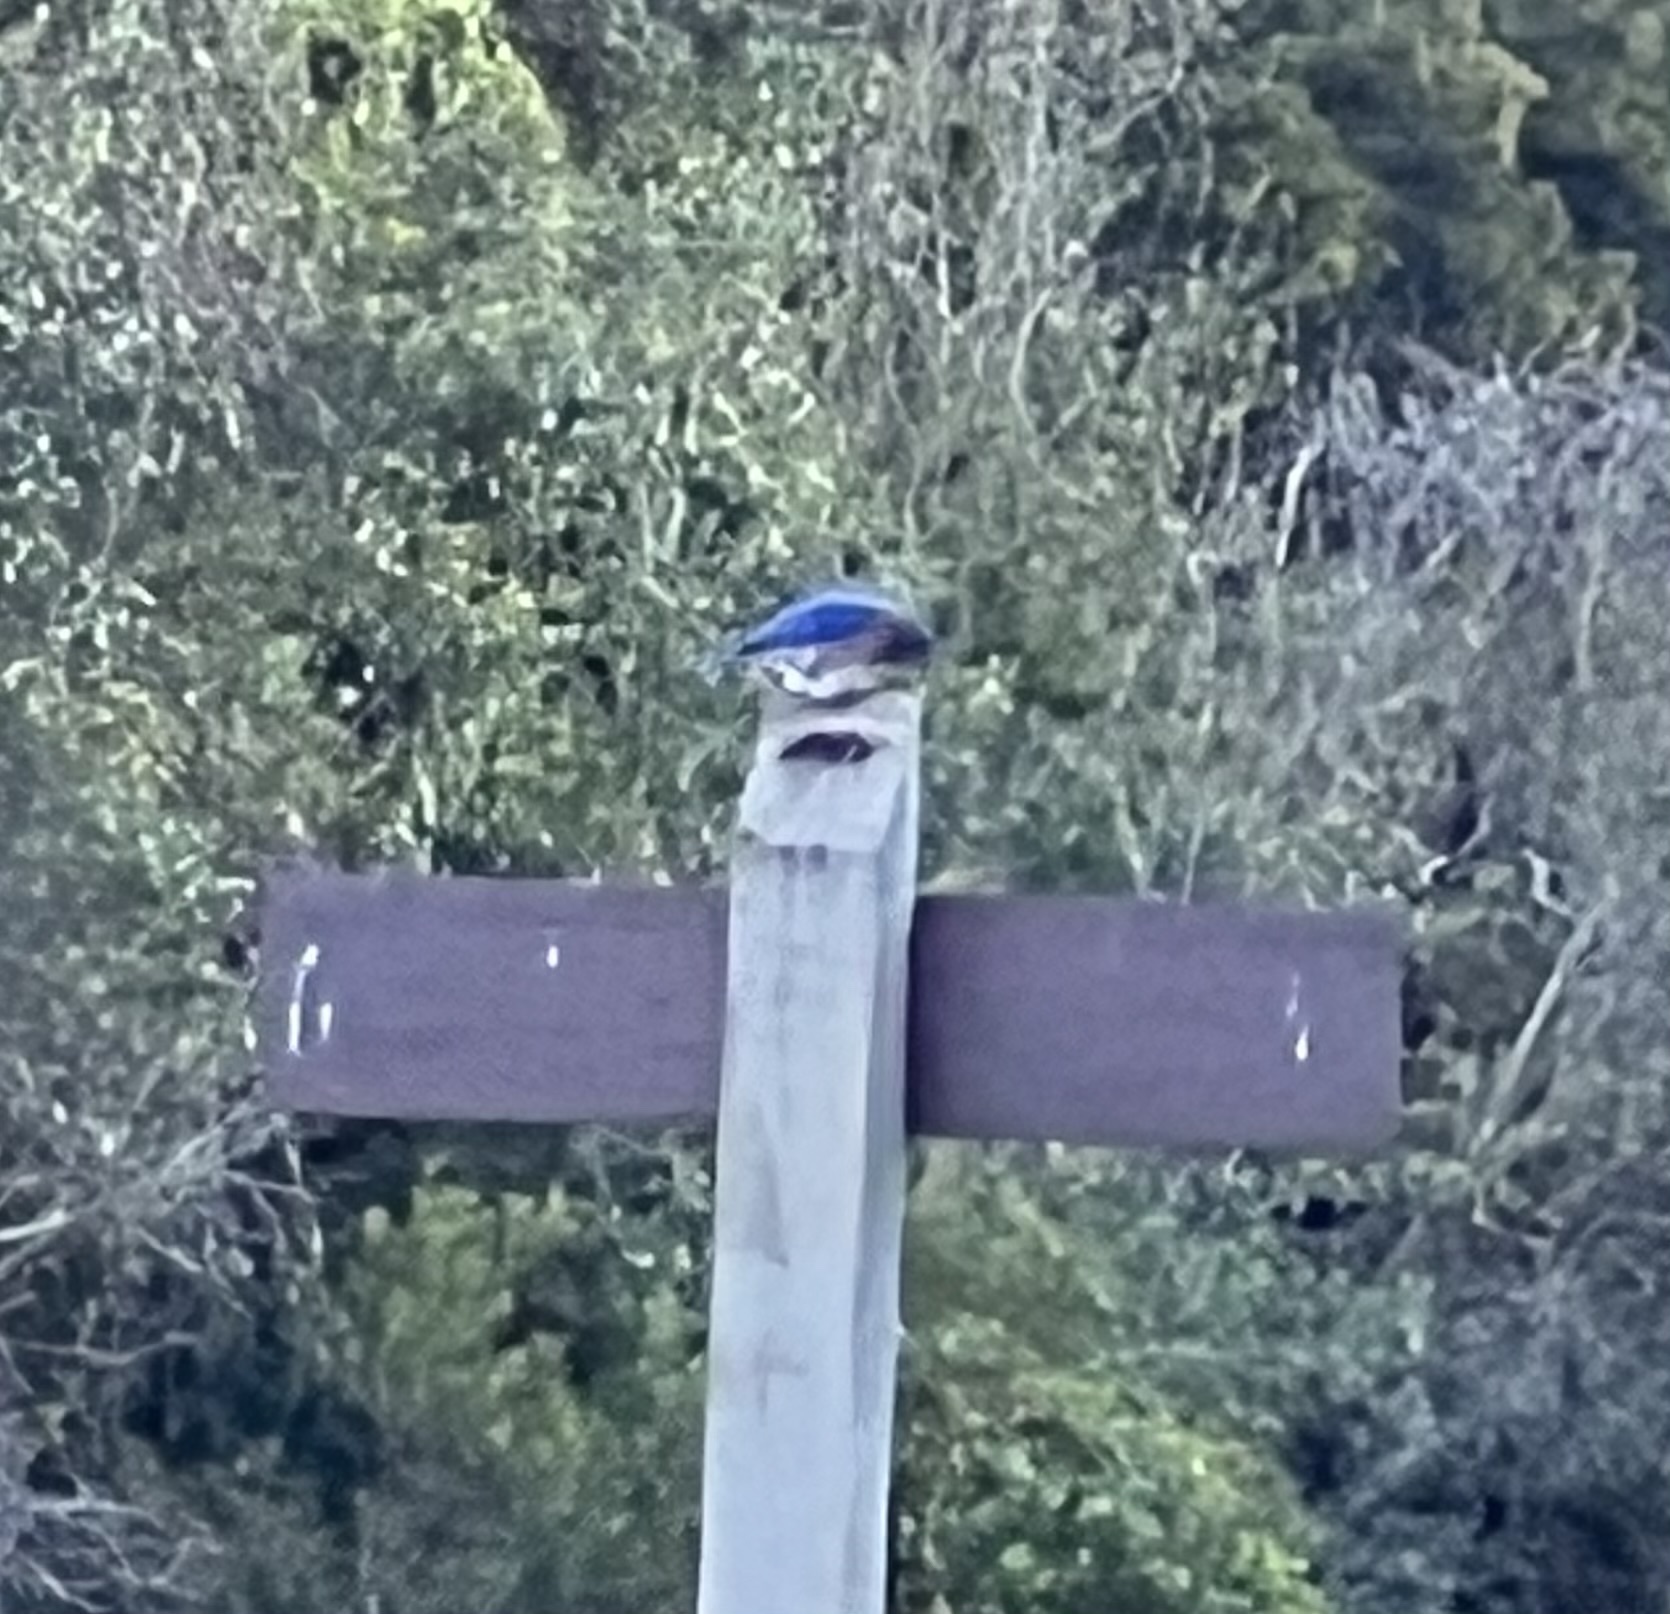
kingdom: Animalia
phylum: Chordata
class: Aves
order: Passeriformes
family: Turdidae
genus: Sialia
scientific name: Sialia sialis
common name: Eastern bluebird
